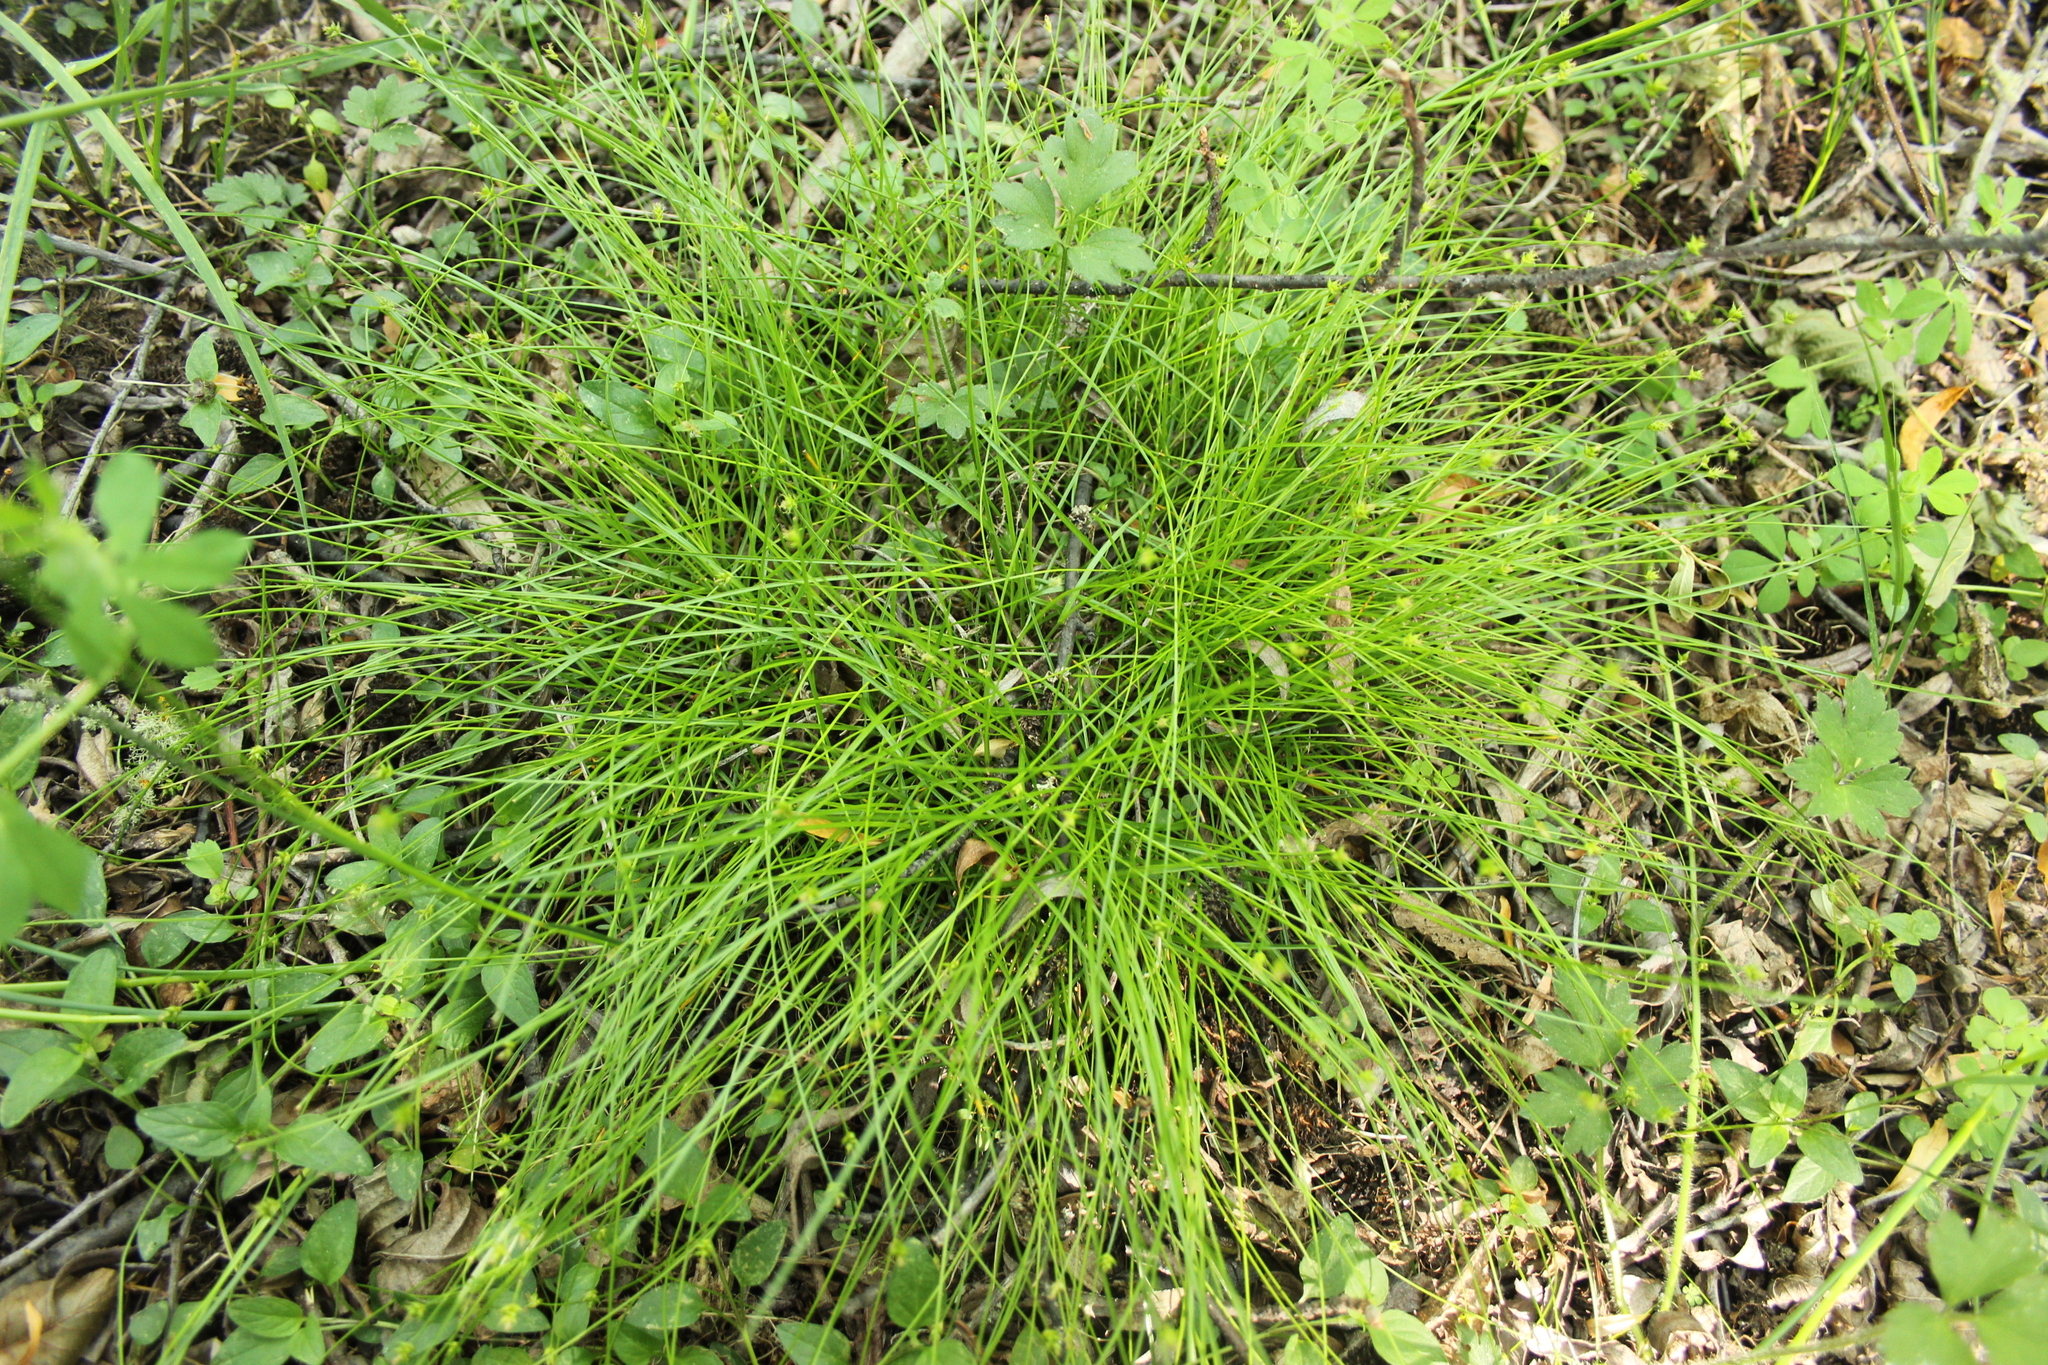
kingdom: Plantae
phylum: Tracheophyta
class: Liliopsida
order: Poales
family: Cyperaceae
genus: Carex
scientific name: Carex capillacea
